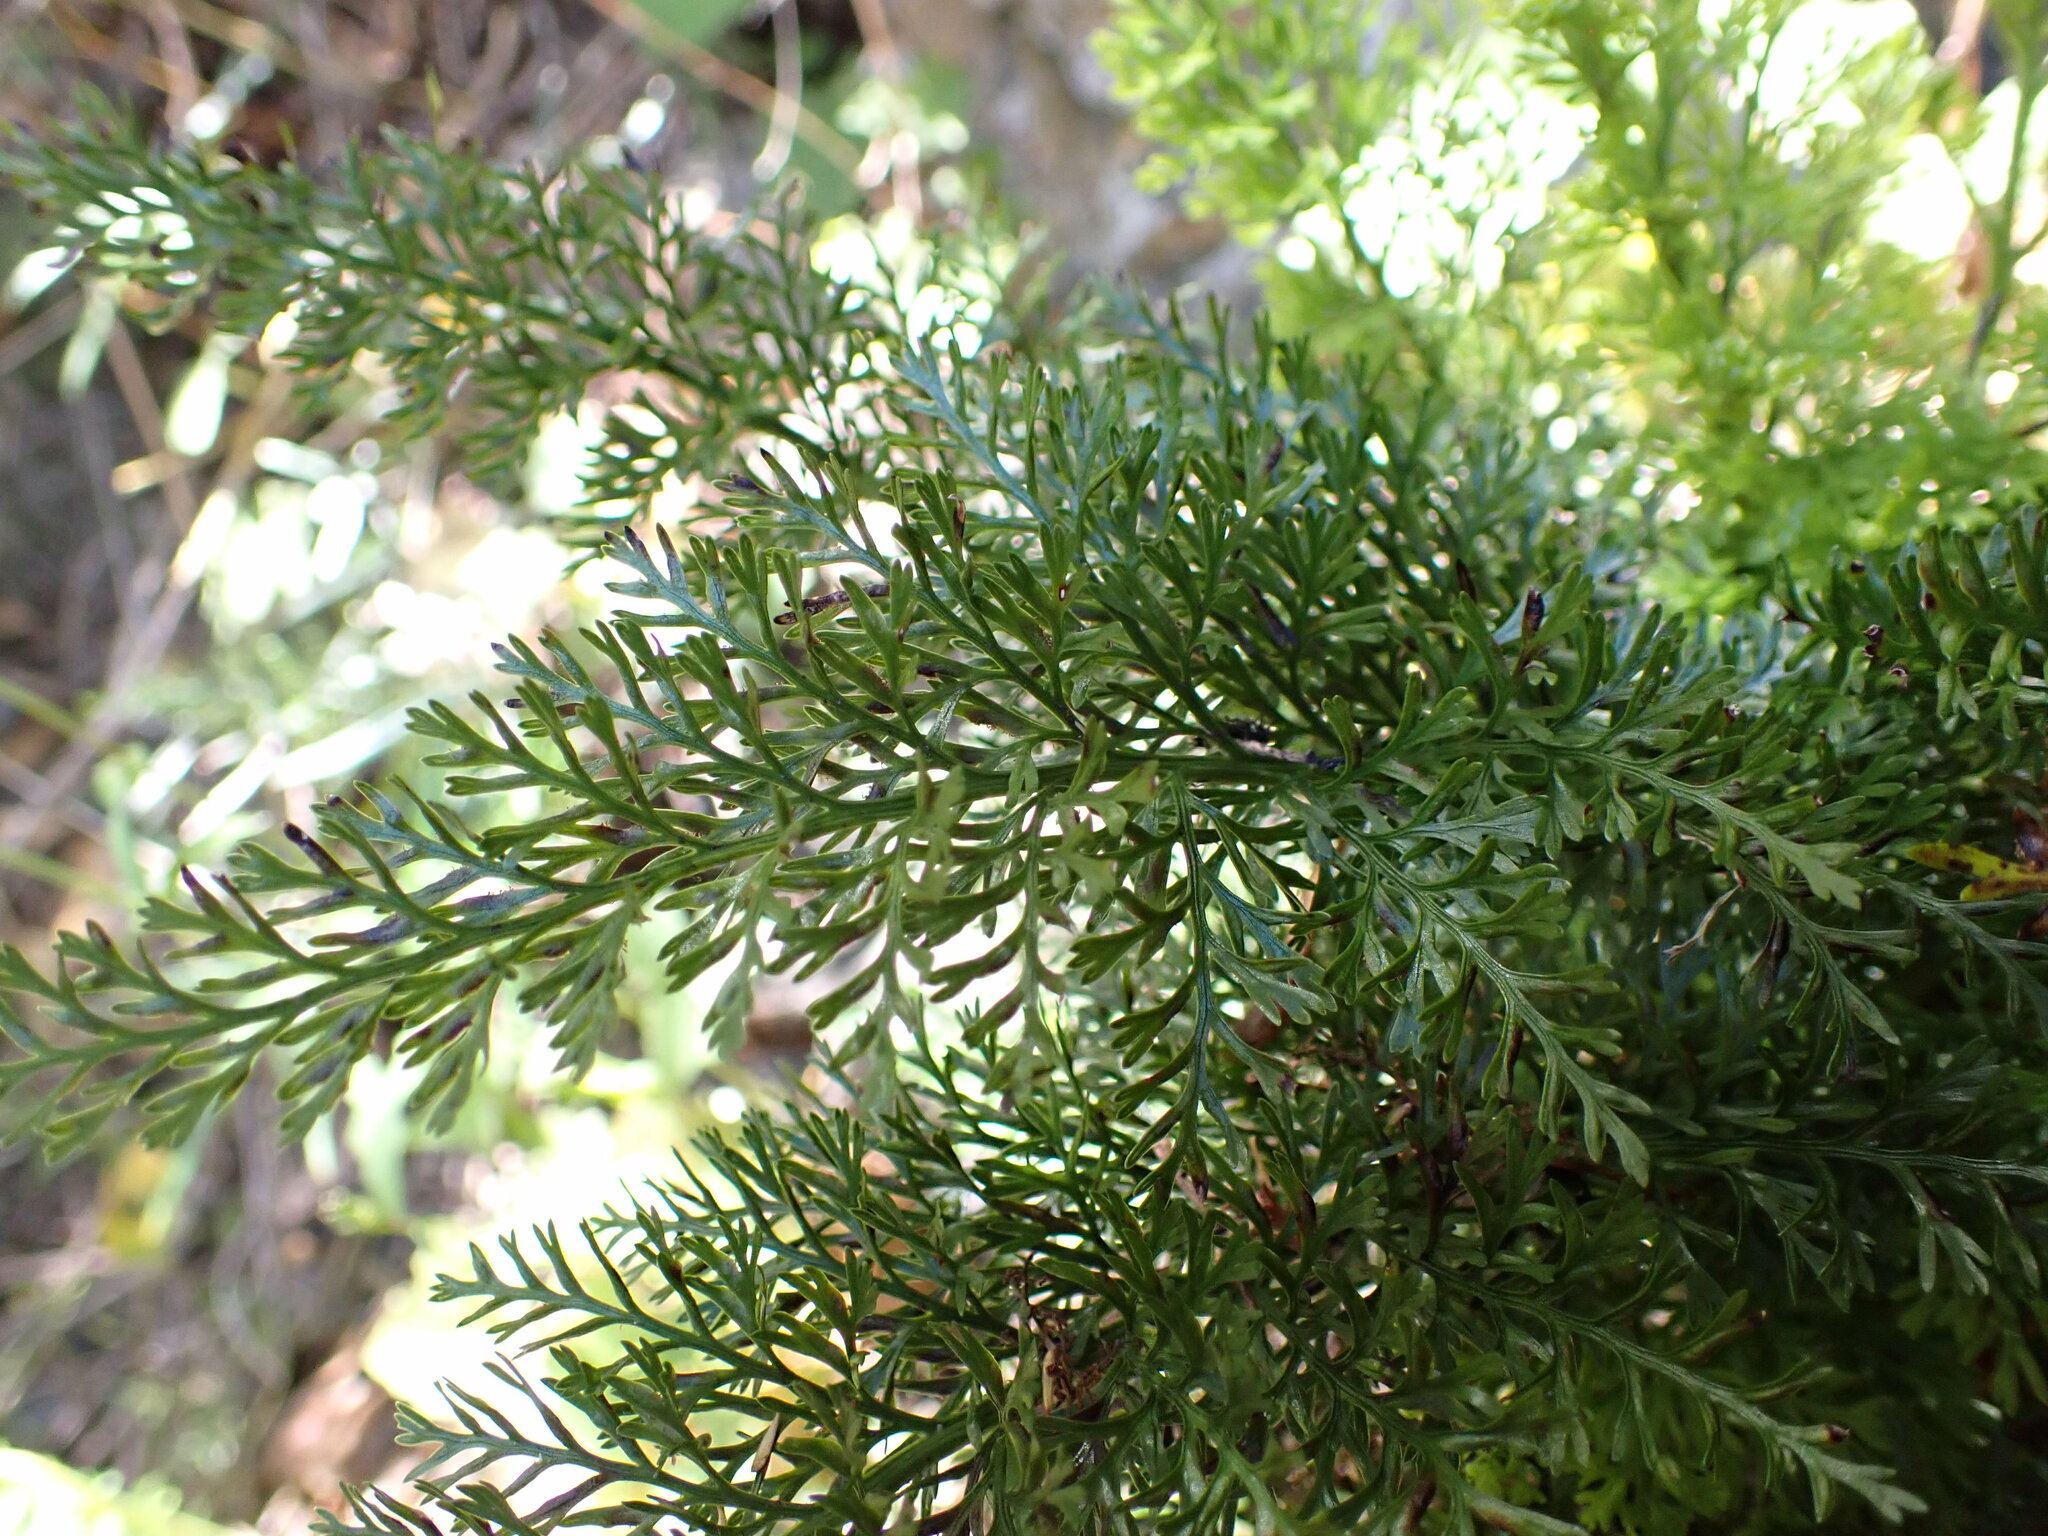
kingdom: Plantae
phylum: Tracheophyta
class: Polypodiopsida
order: Polypodiales
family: Aspleniaceae
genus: Asplenium
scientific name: Asplenium richardii
